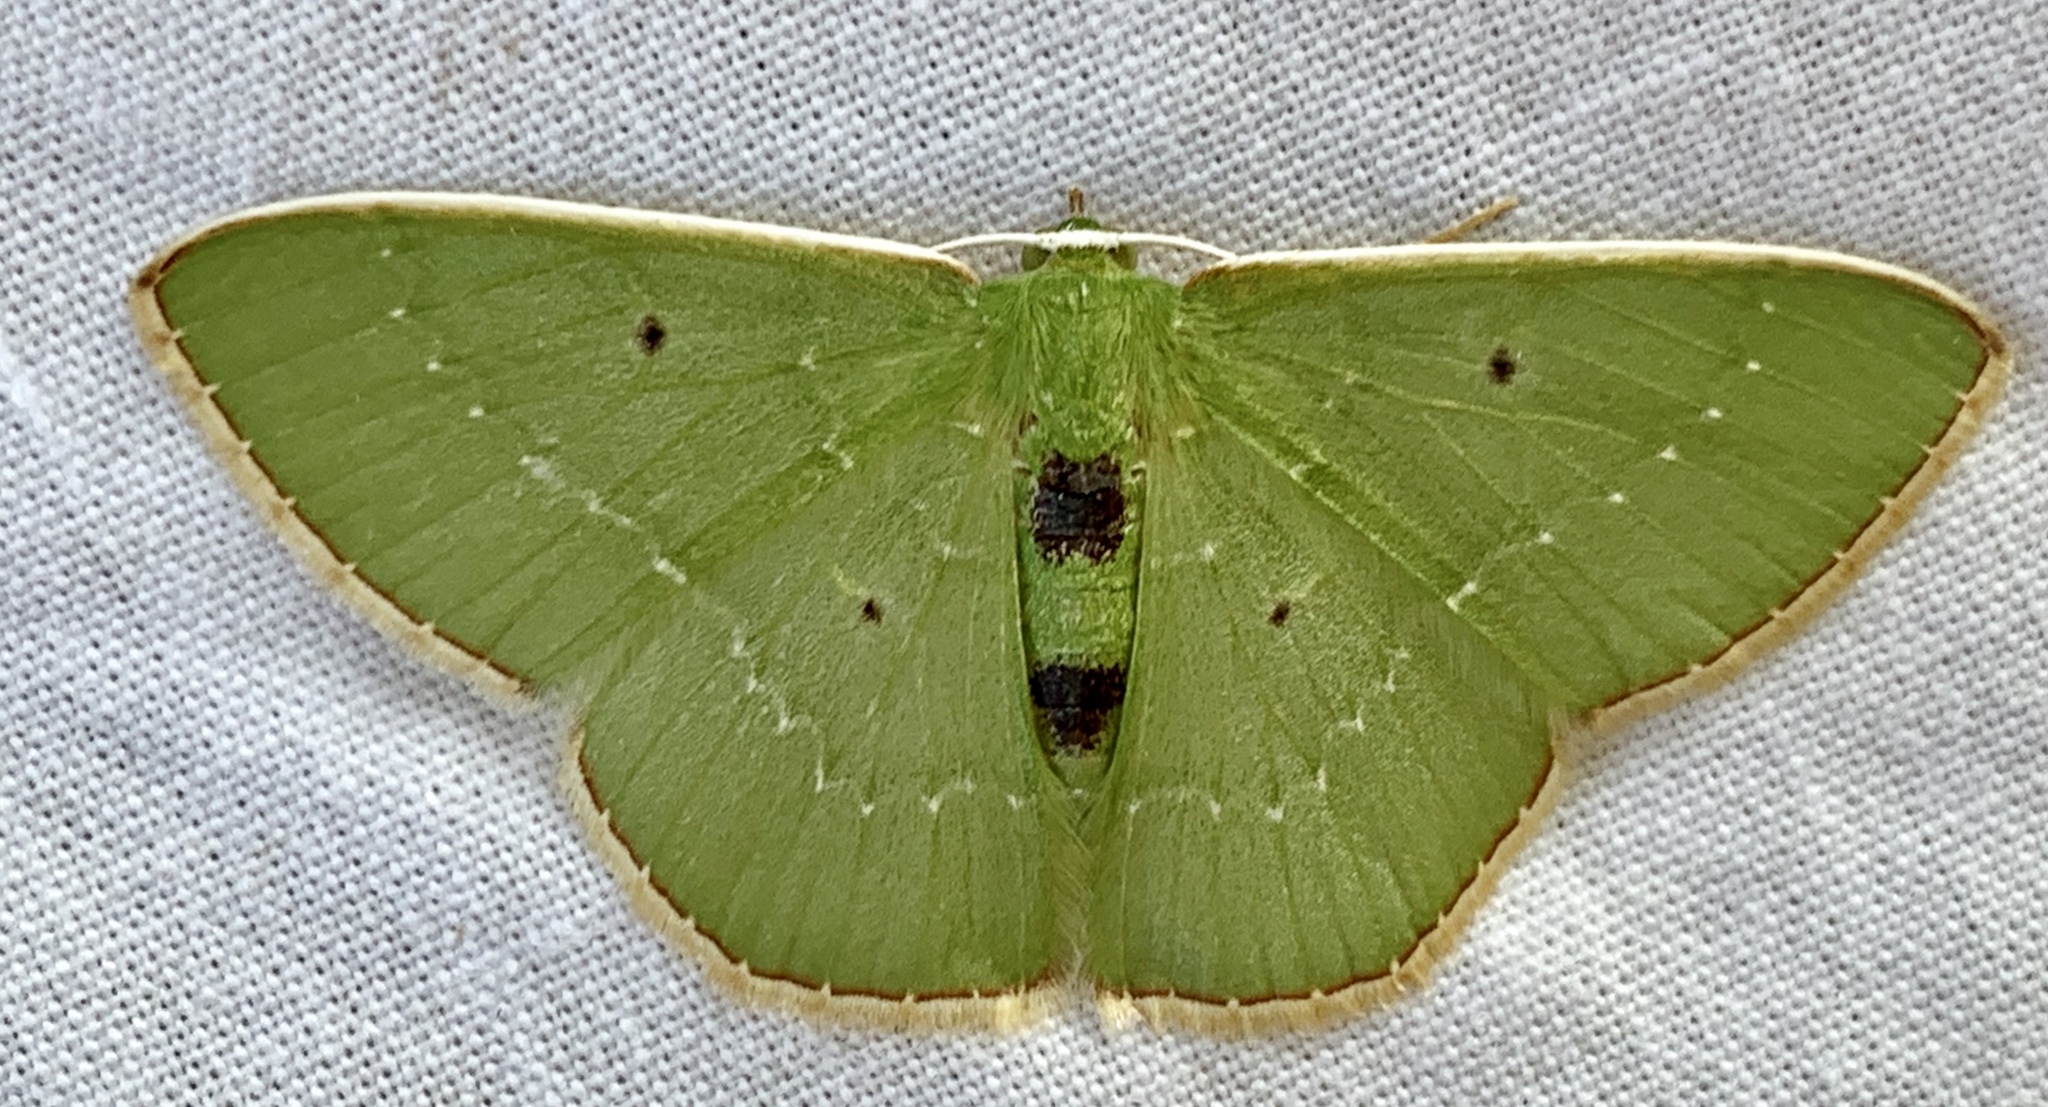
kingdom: Animalia
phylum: Arthropoda
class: Insecta
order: Lepidoptera
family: Geometridae
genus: Nemoria
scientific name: Nemoria carolinae
